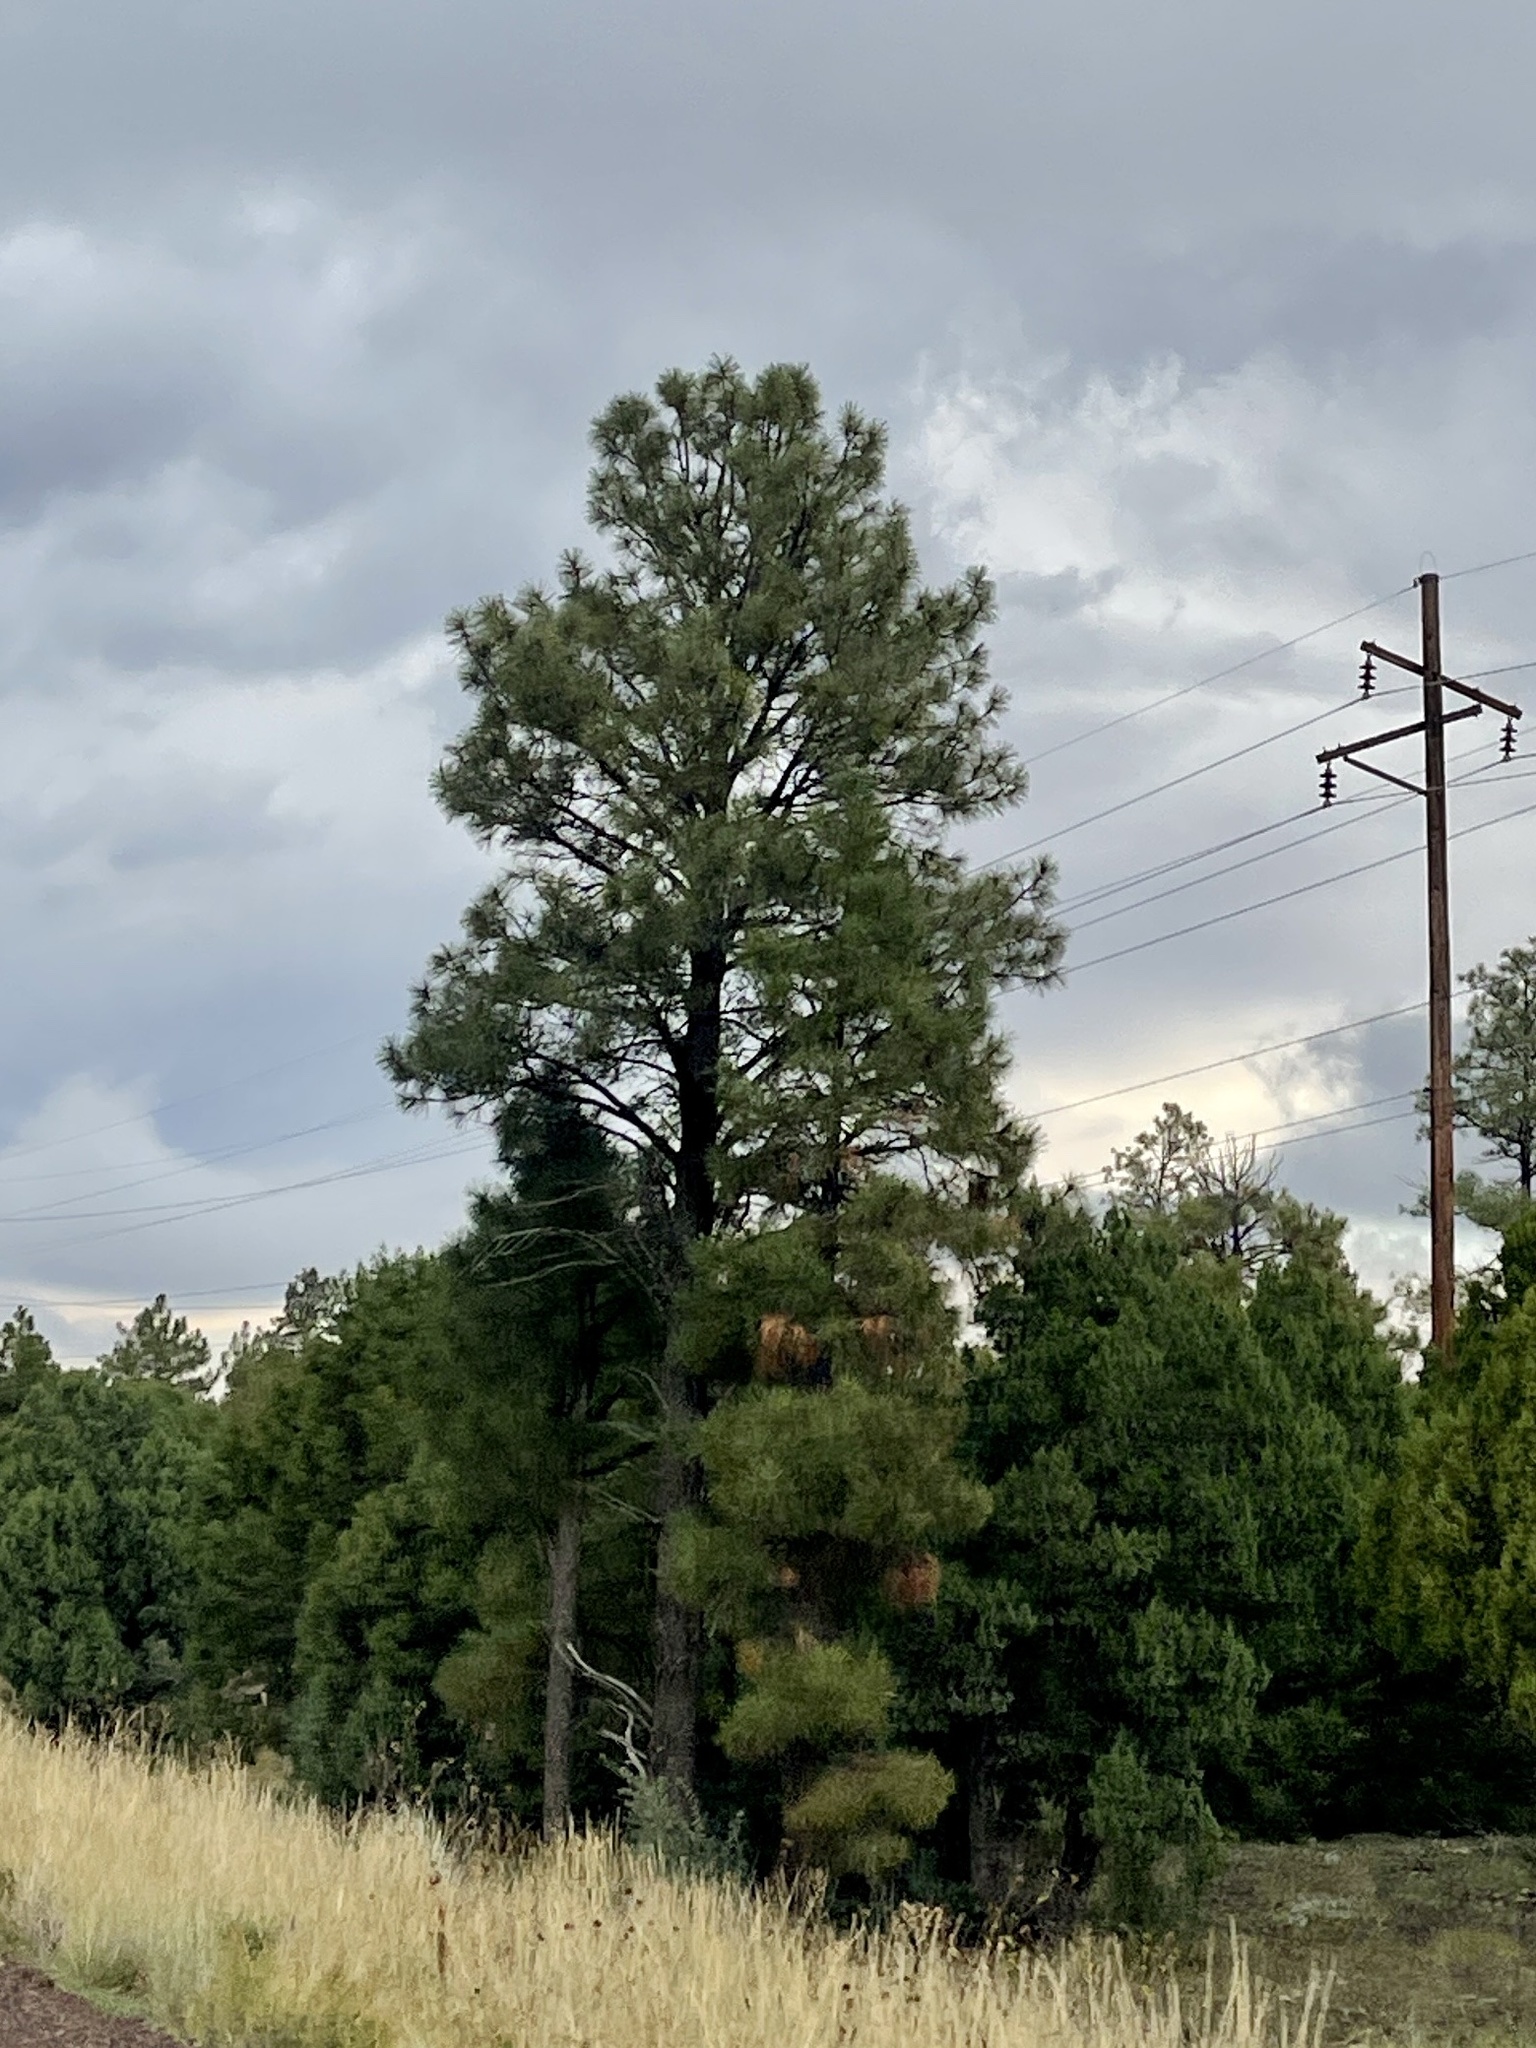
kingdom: Plantae
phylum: Tracheophyta
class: Pinopsida
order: Pinales
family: Pinaceae
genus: Pinus
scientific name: Pinus ponderosa
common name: Western yellow-pine
